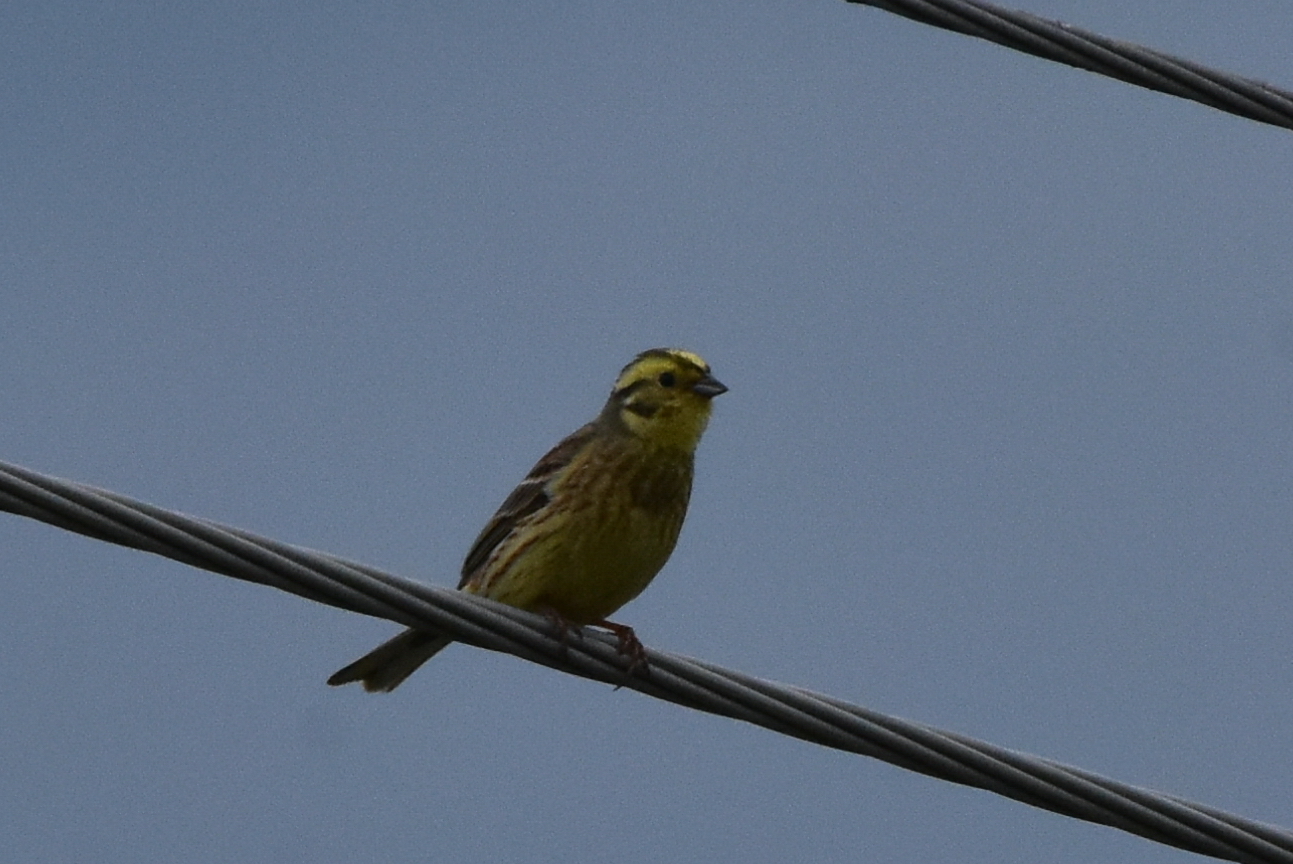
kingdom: Animalia
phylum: Chordata
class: Aves
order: Passeriformes
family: Emberizidae
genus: Emberiza
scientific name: Emberiza citrinella
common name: Yellowhammer
